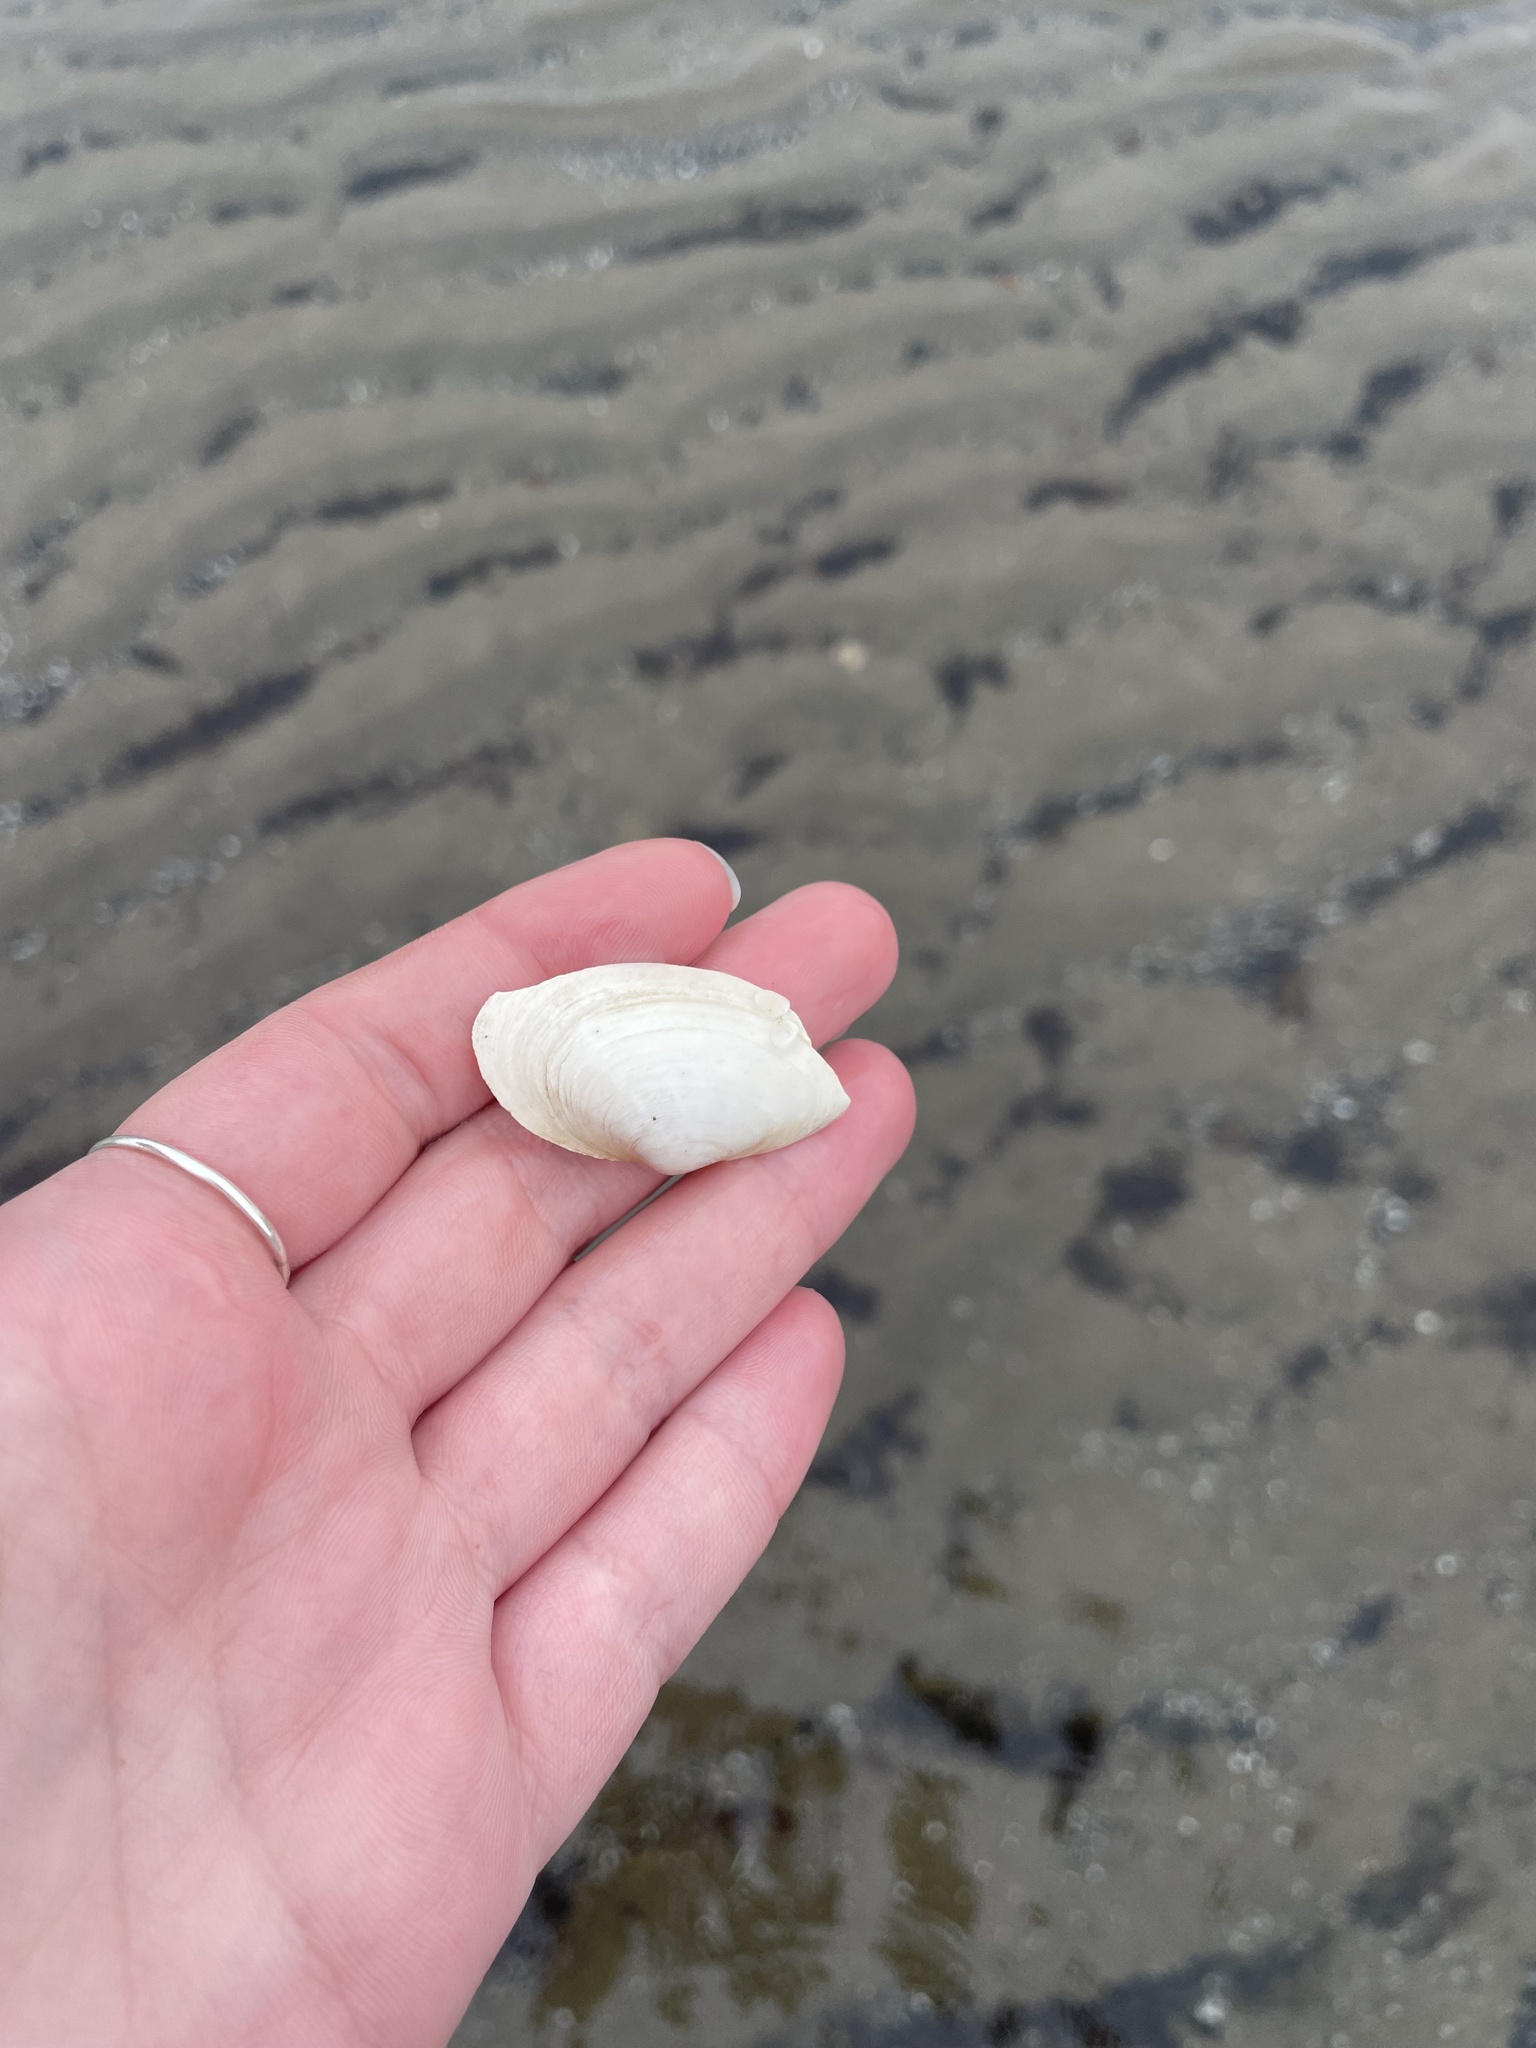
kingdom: Animalia
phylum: Mollusca
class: Bivalvia
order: Myida
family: Myidae
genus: Mya
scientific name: Mya arenaria
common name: Soft-shelled clam
